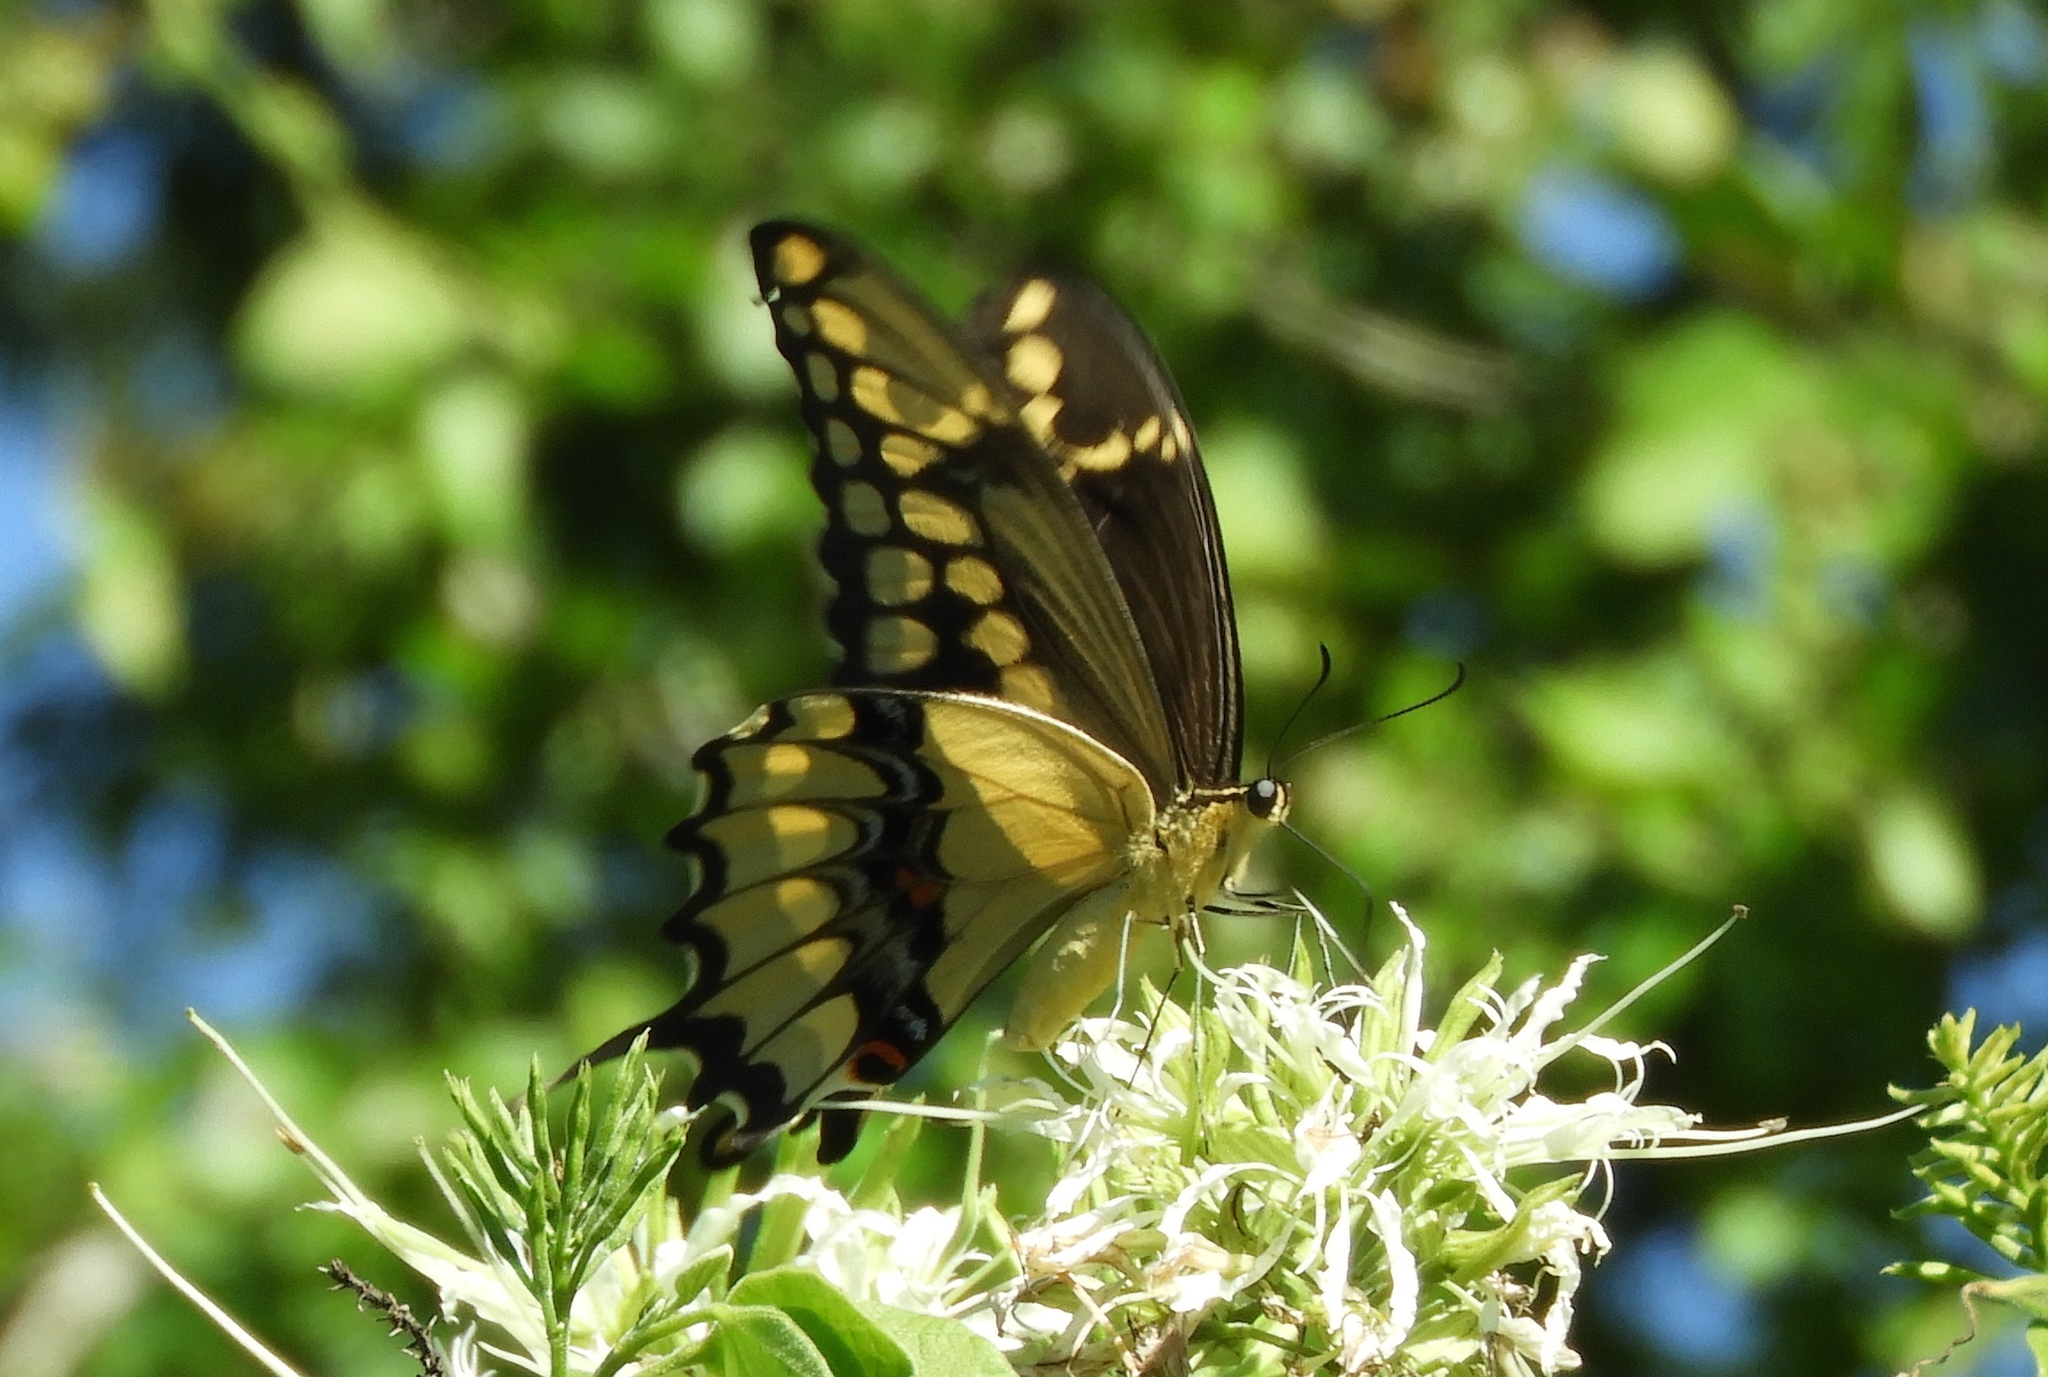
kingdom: Animalia
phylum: Arthropoda
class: Insecta
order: Lepidoptera
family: Papilionidae
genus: Papilio
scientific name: Papilio rumiko
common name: Western giant swallowtail
